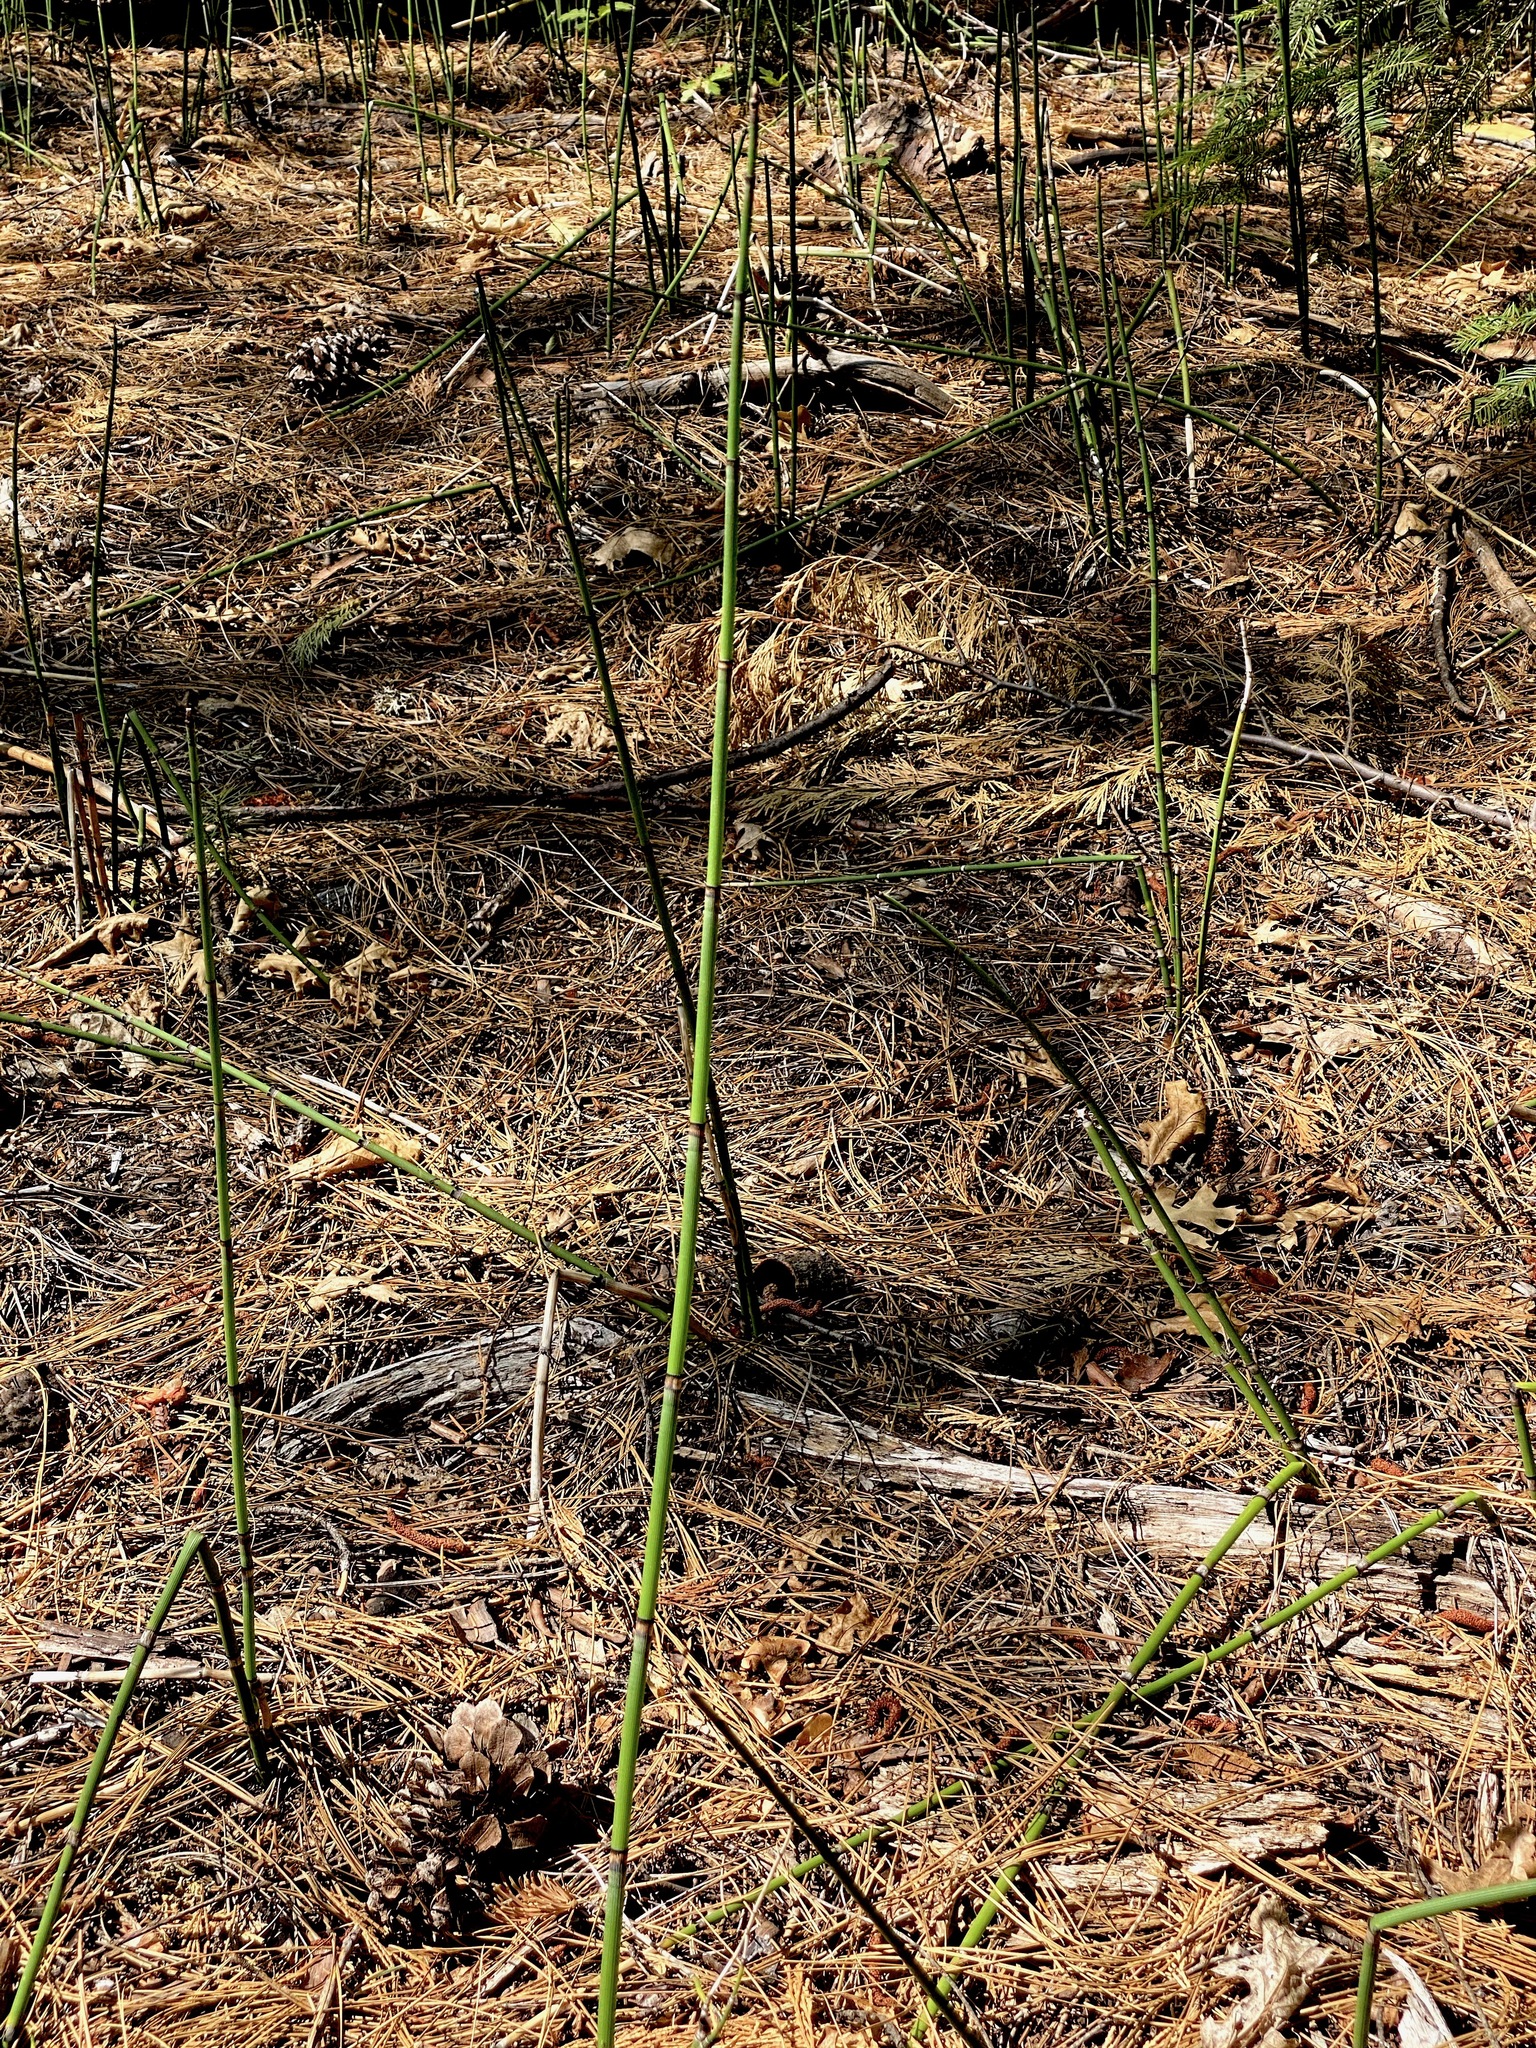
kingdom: Plantae
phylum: Tracheophyta
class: Polypodiopsida
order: Equisetales
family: Equisetaceae
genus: Equisetum
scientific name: Equisetum ferrissii
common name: Ferriss' horsetail
